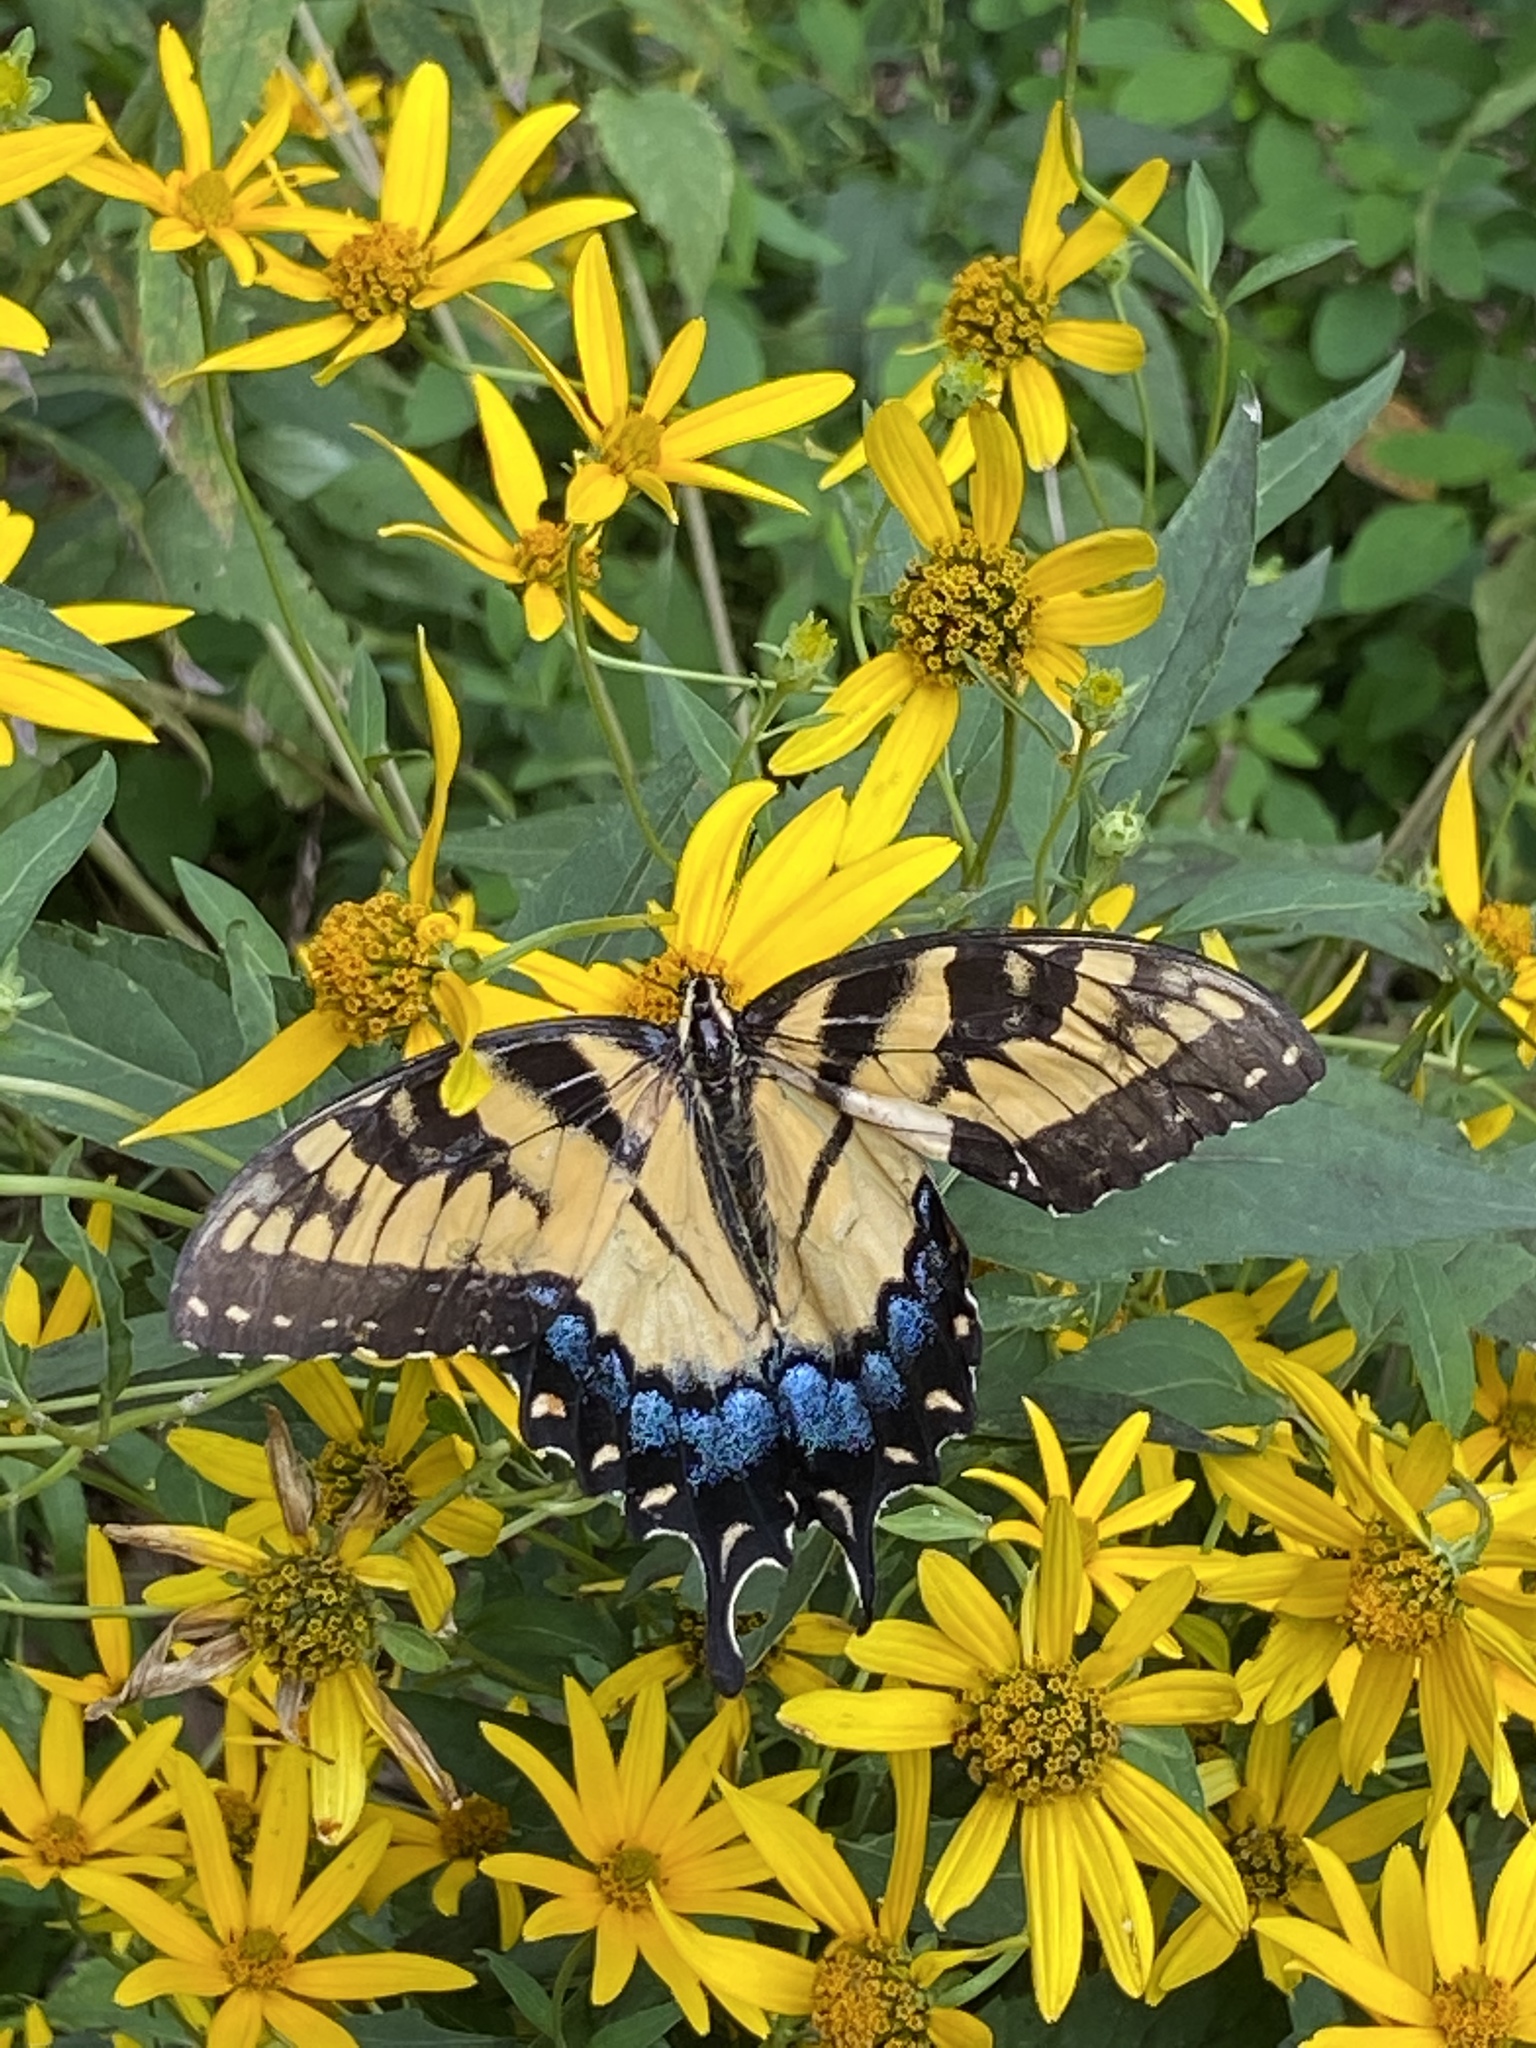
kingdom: Animalia
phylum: Arthropoda
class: Insecta
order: Lepidoptera
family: Papilionidae
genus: Papilio
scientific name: Papilio glaucus
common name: Tiger swallowtail
